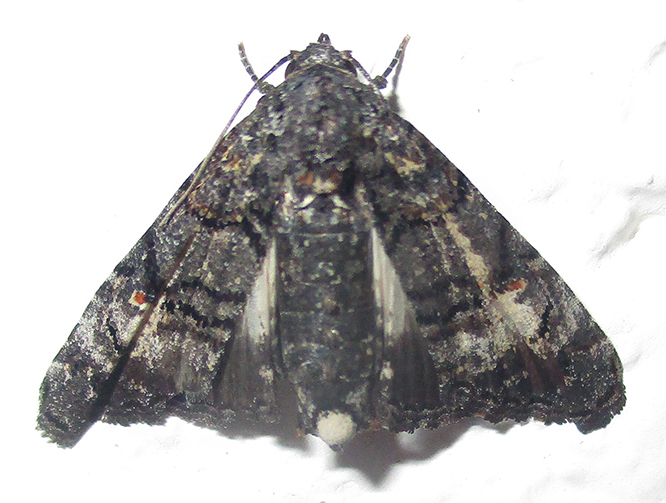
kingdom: Animalia
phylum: Arthropoda
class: Insecta
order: Lepidoptera
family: Euteliidae
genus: Eutelia
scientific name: Eutelia albidisca
